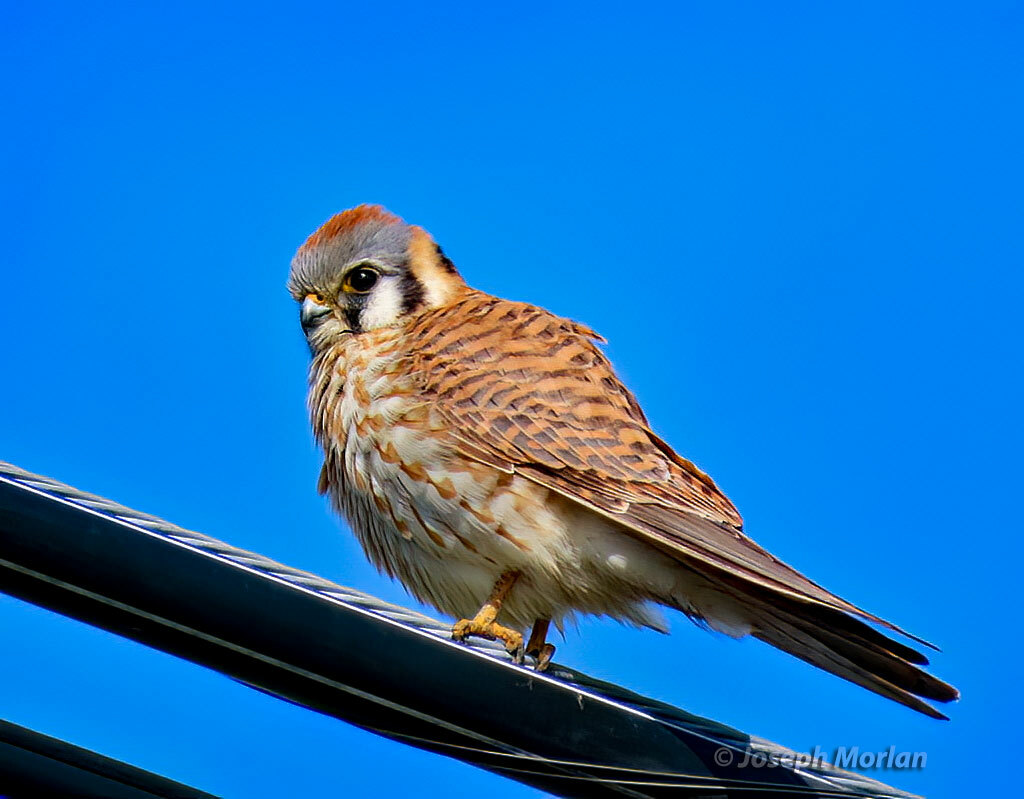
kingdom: Animalia
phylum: Chordata
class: Aves
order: Falconiformes
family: Falconidae
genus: Falco
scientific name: Falco sparverius
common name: American kestrel
